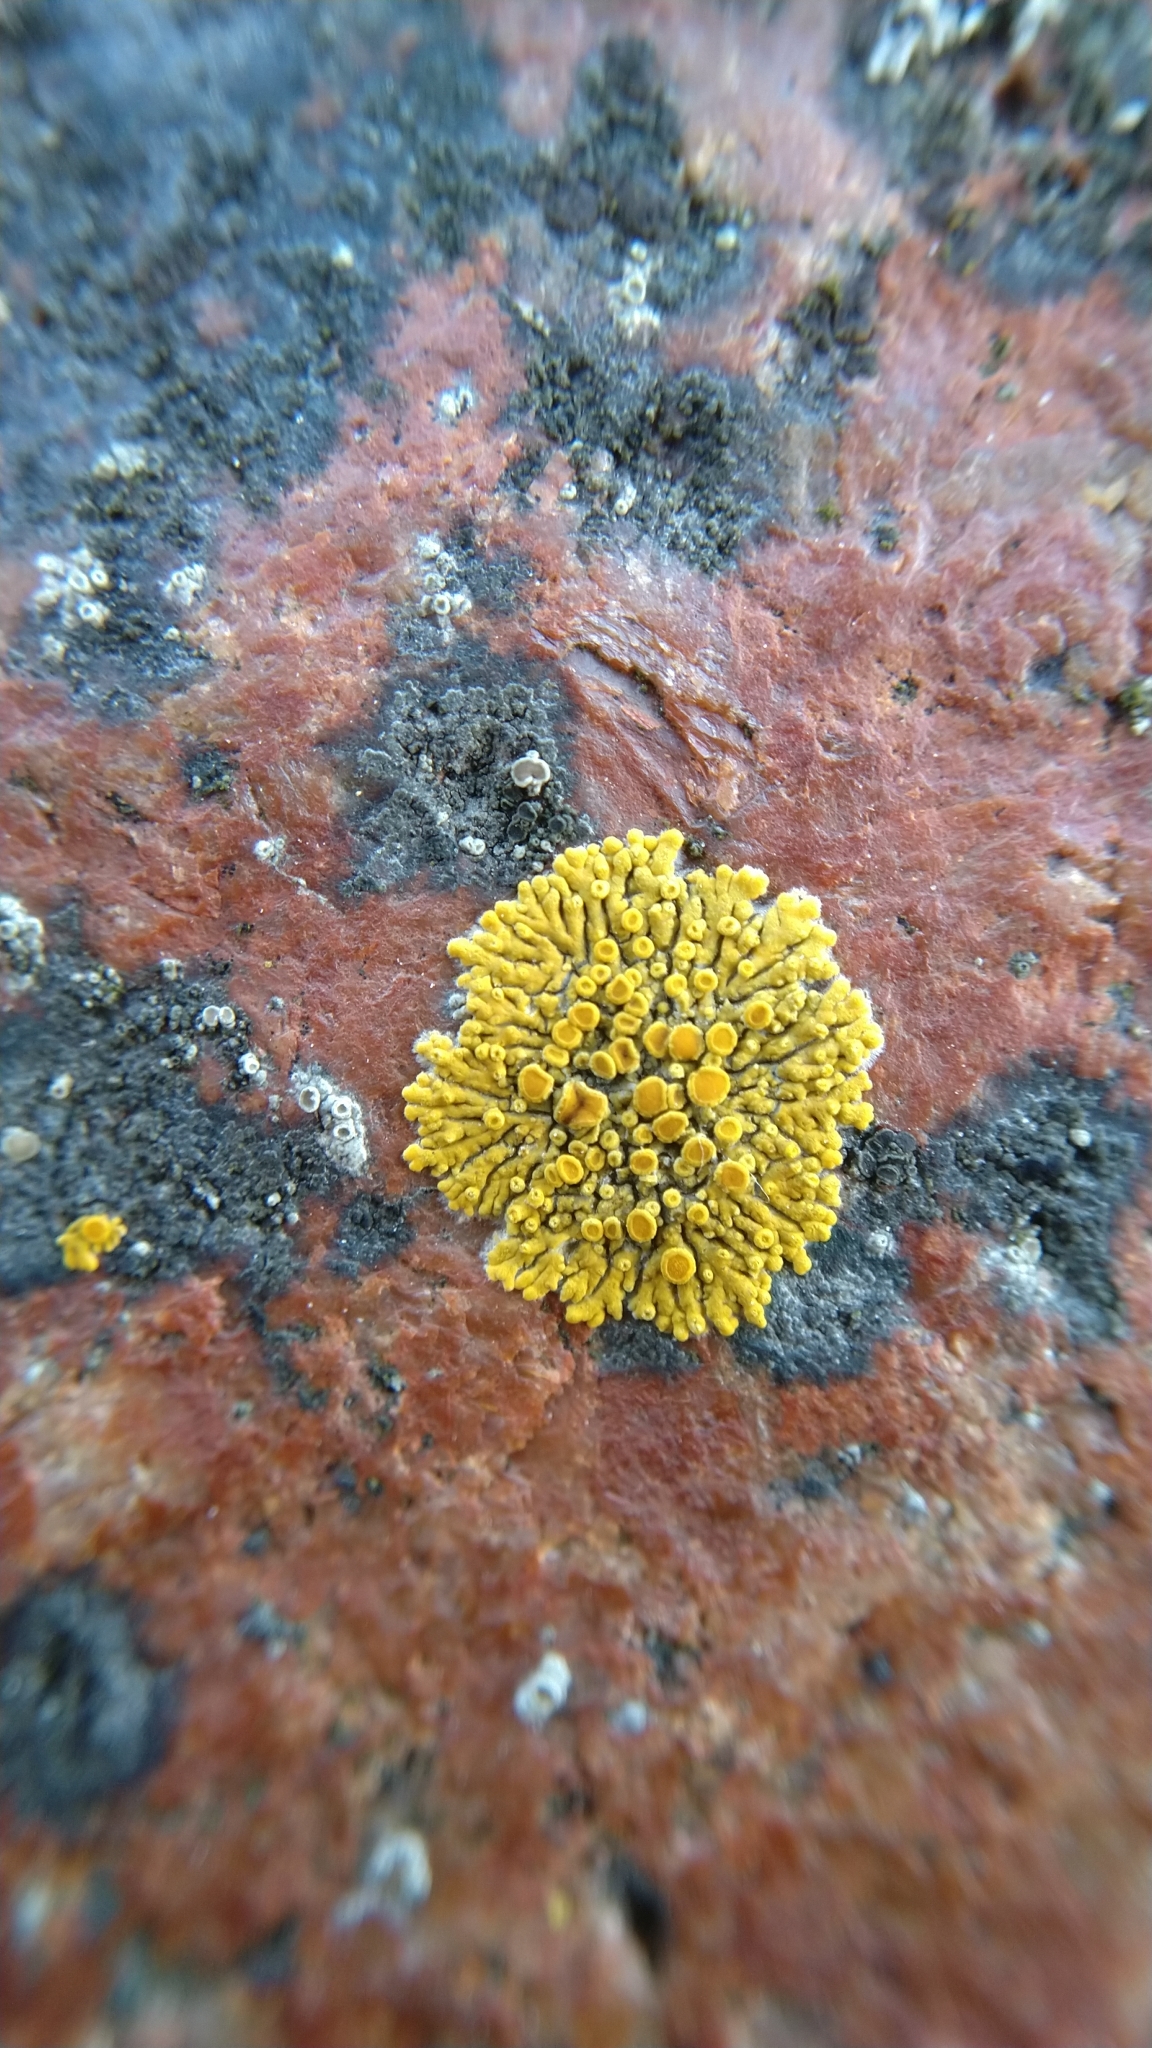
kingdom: Fungi
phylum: Ascomycota
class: Lecanoromycetes
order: Teloschistales
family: Teloschistaceae
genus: Athallia
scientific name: Athallia scopularis
